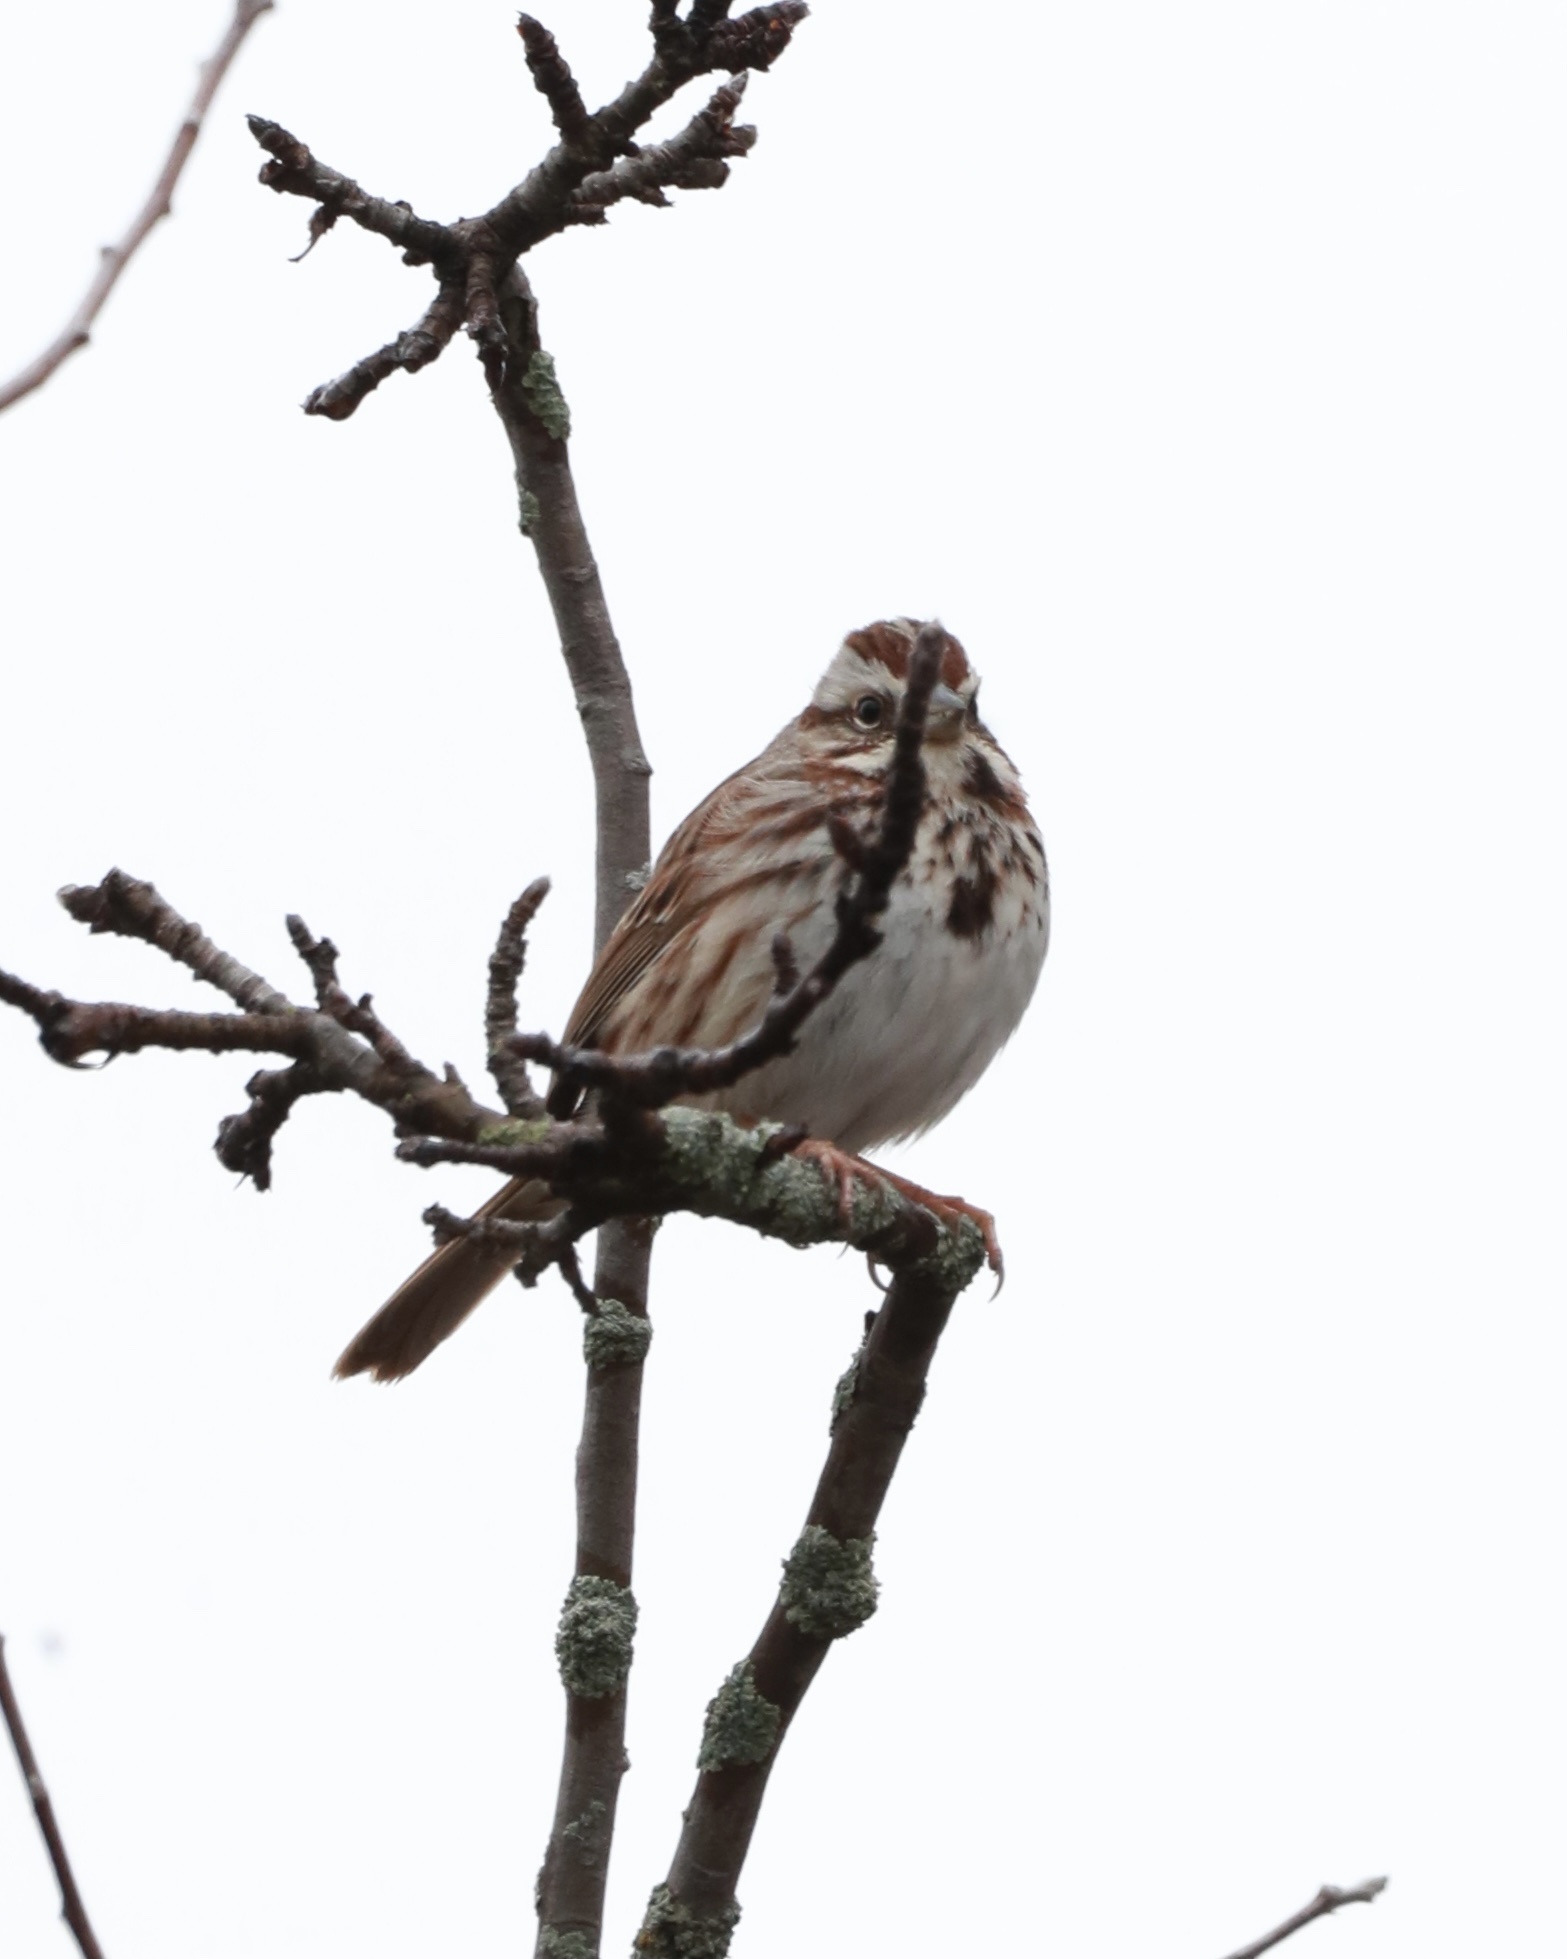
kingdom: Animalia
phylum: Chordata
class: Aves
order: Passeriformes
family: Passerellidae
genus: Melospiza
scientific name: Melospiza melodia
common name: Song sparrow
